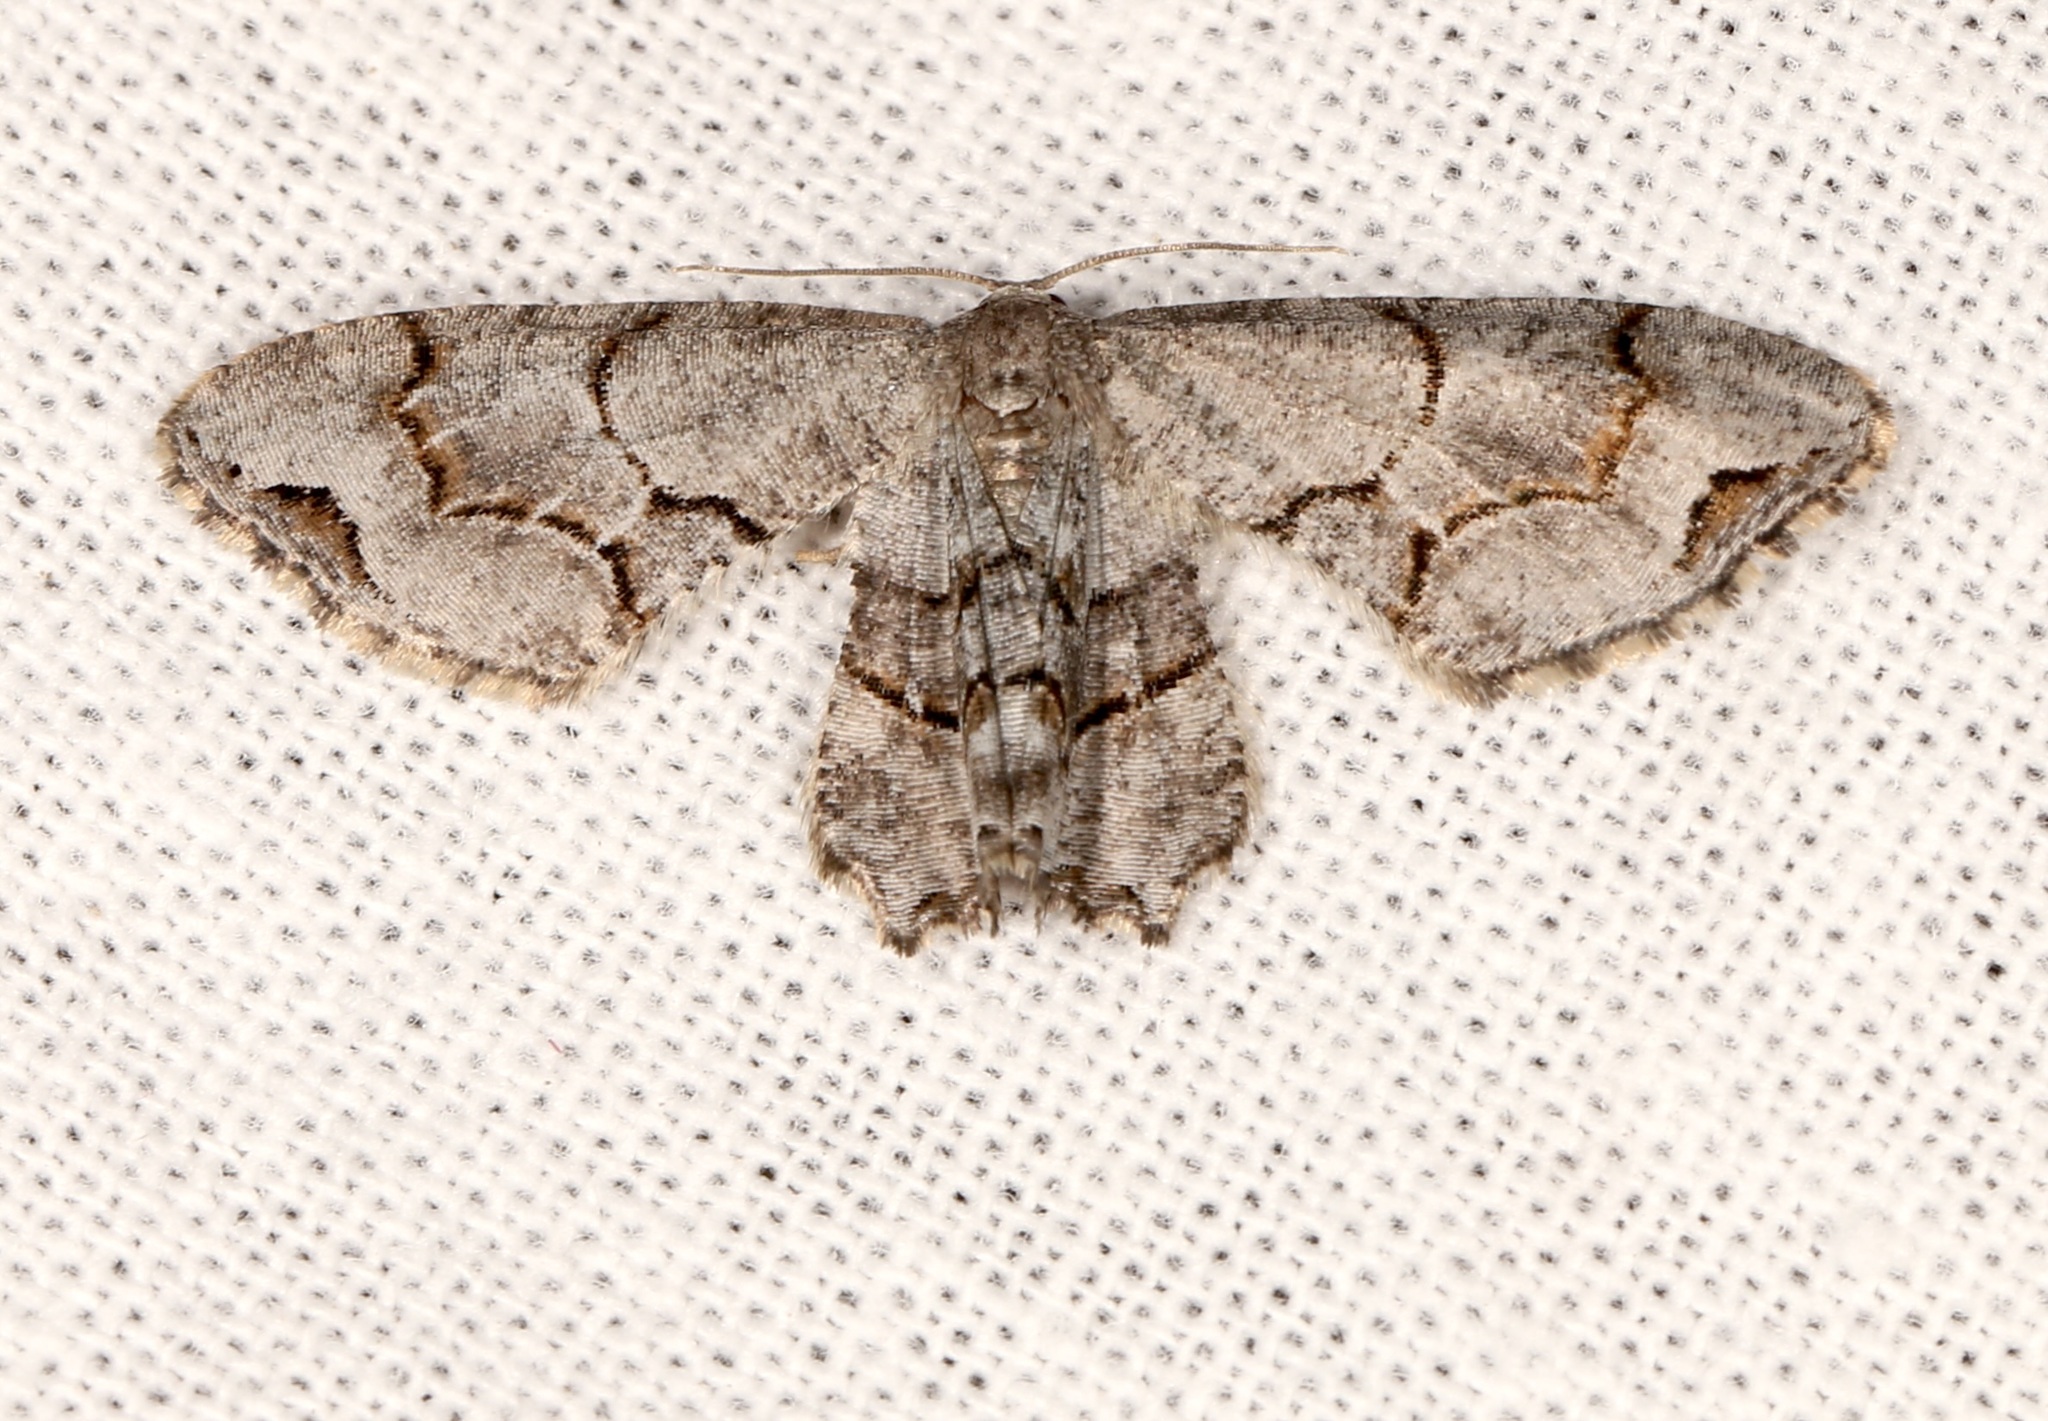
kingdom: Animalia
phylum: Arthropoda
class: Insecta
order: Lepidoptera
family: Uraniidae
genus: Epiplema
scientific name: Epiplema Callizzia amorata
